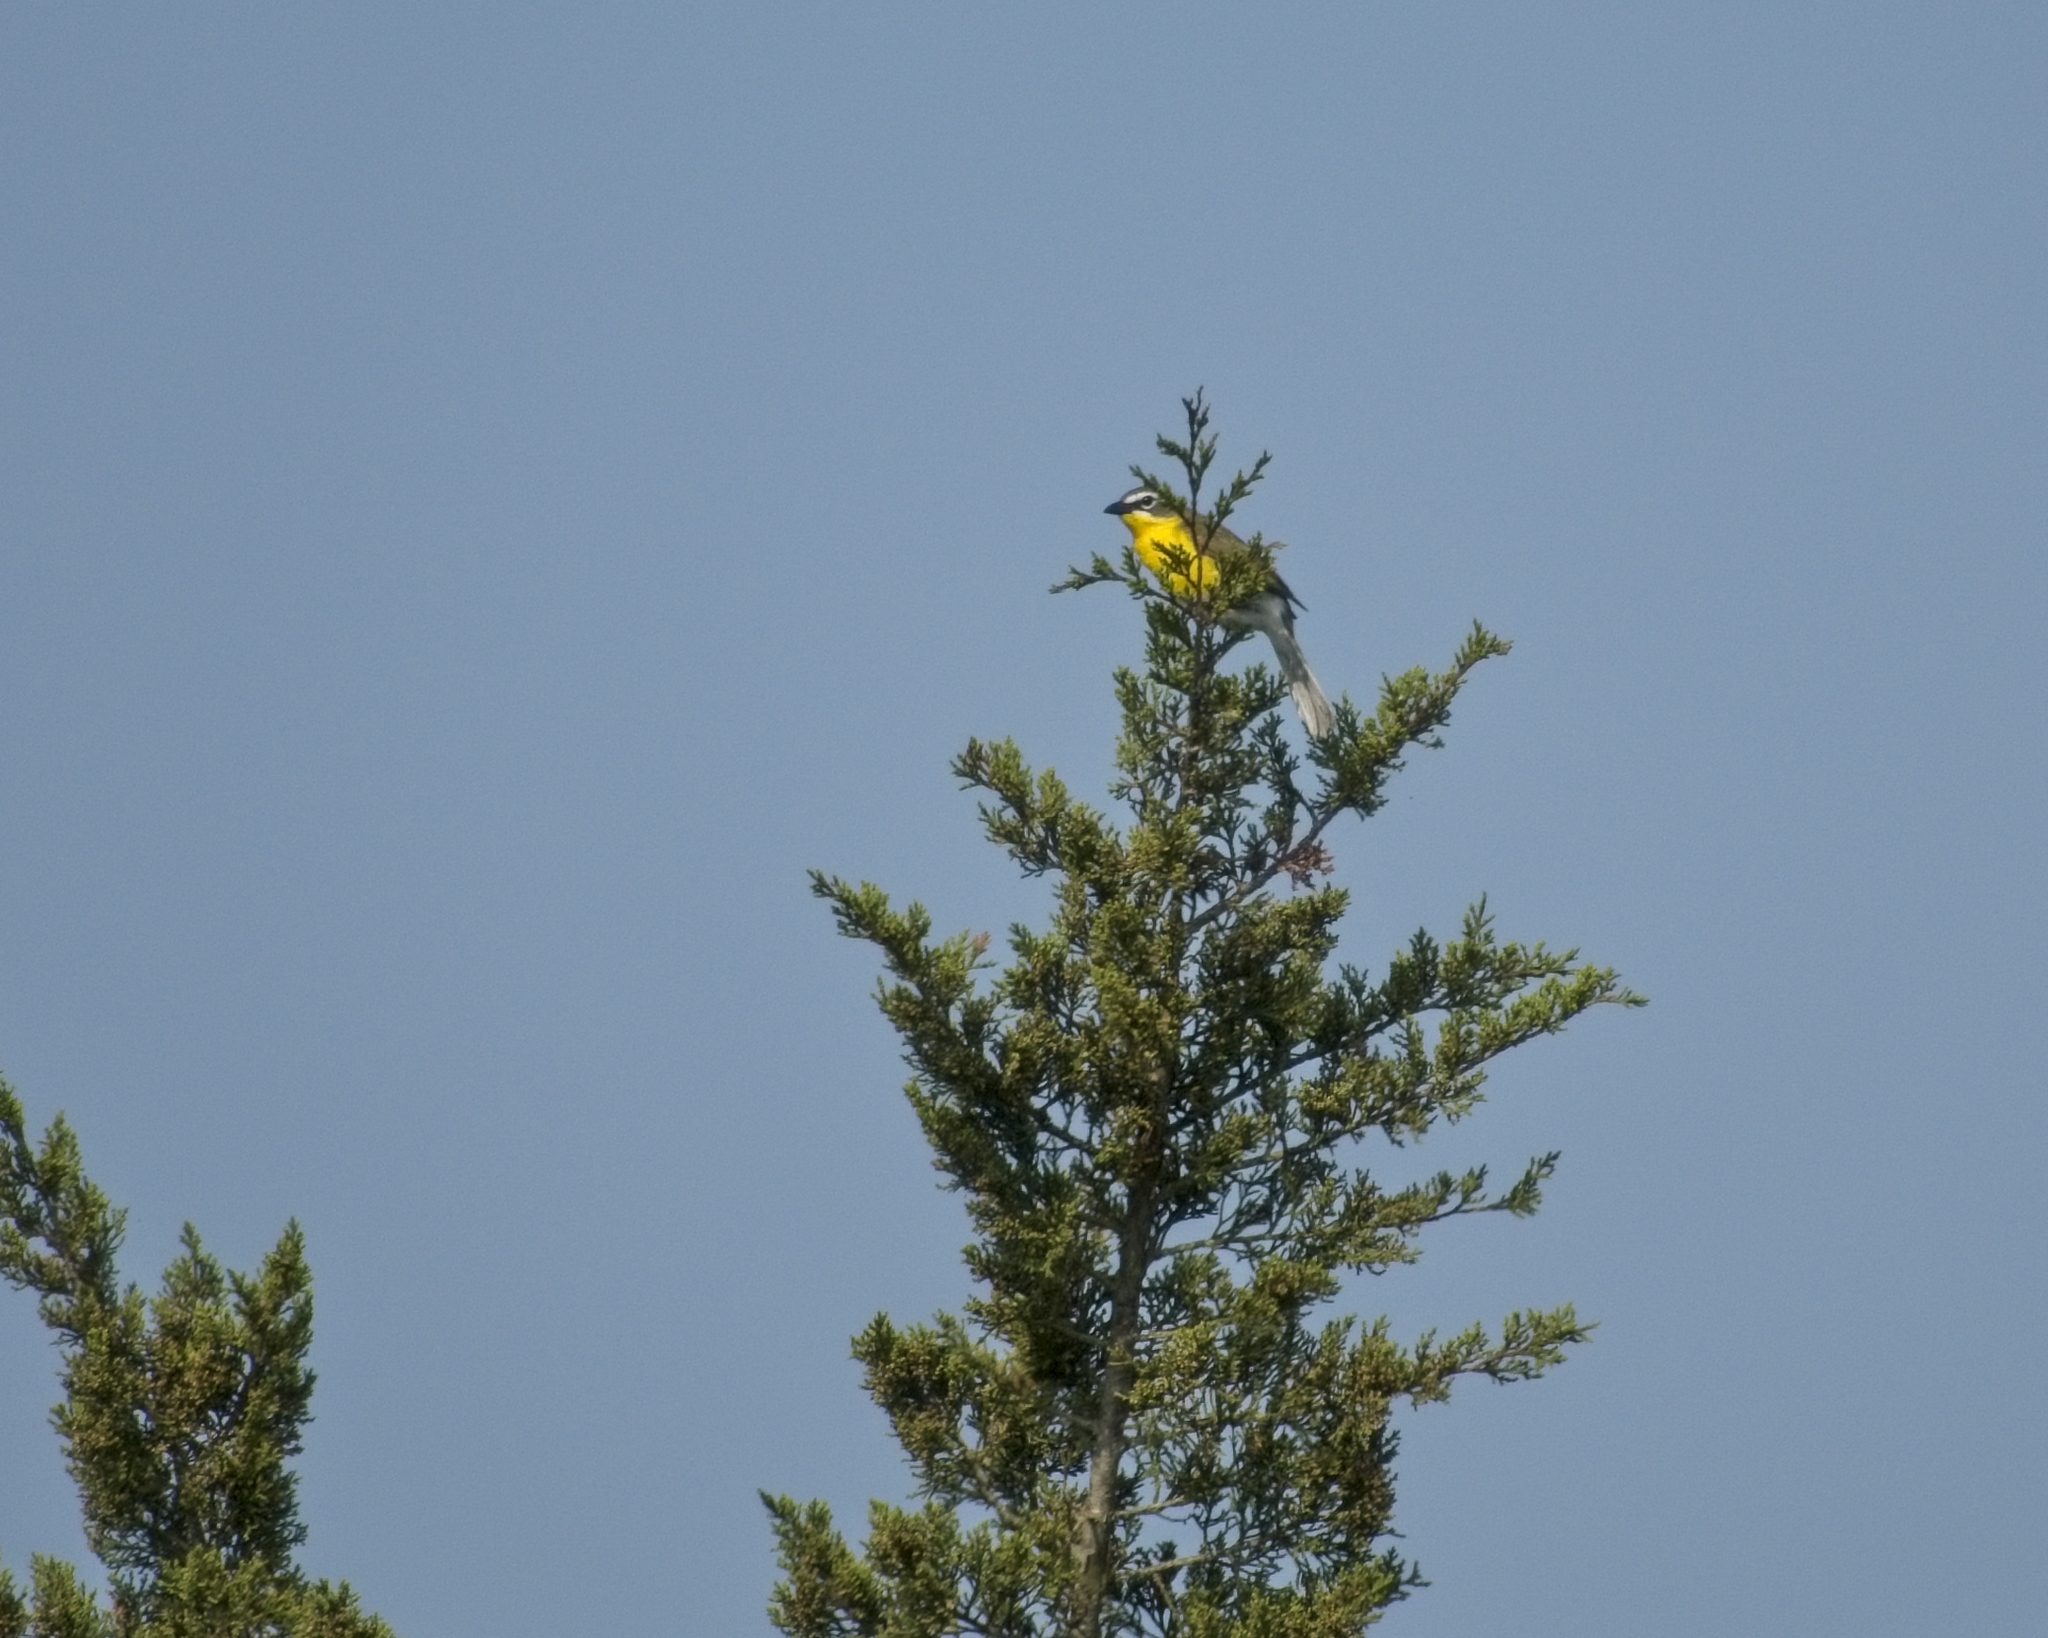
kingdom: Animalia
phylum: Chordata
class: Aves
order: Passeriformes
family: Parulidae
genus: Icteria
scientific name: Icteria virens
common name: Yellow-breasted chat
